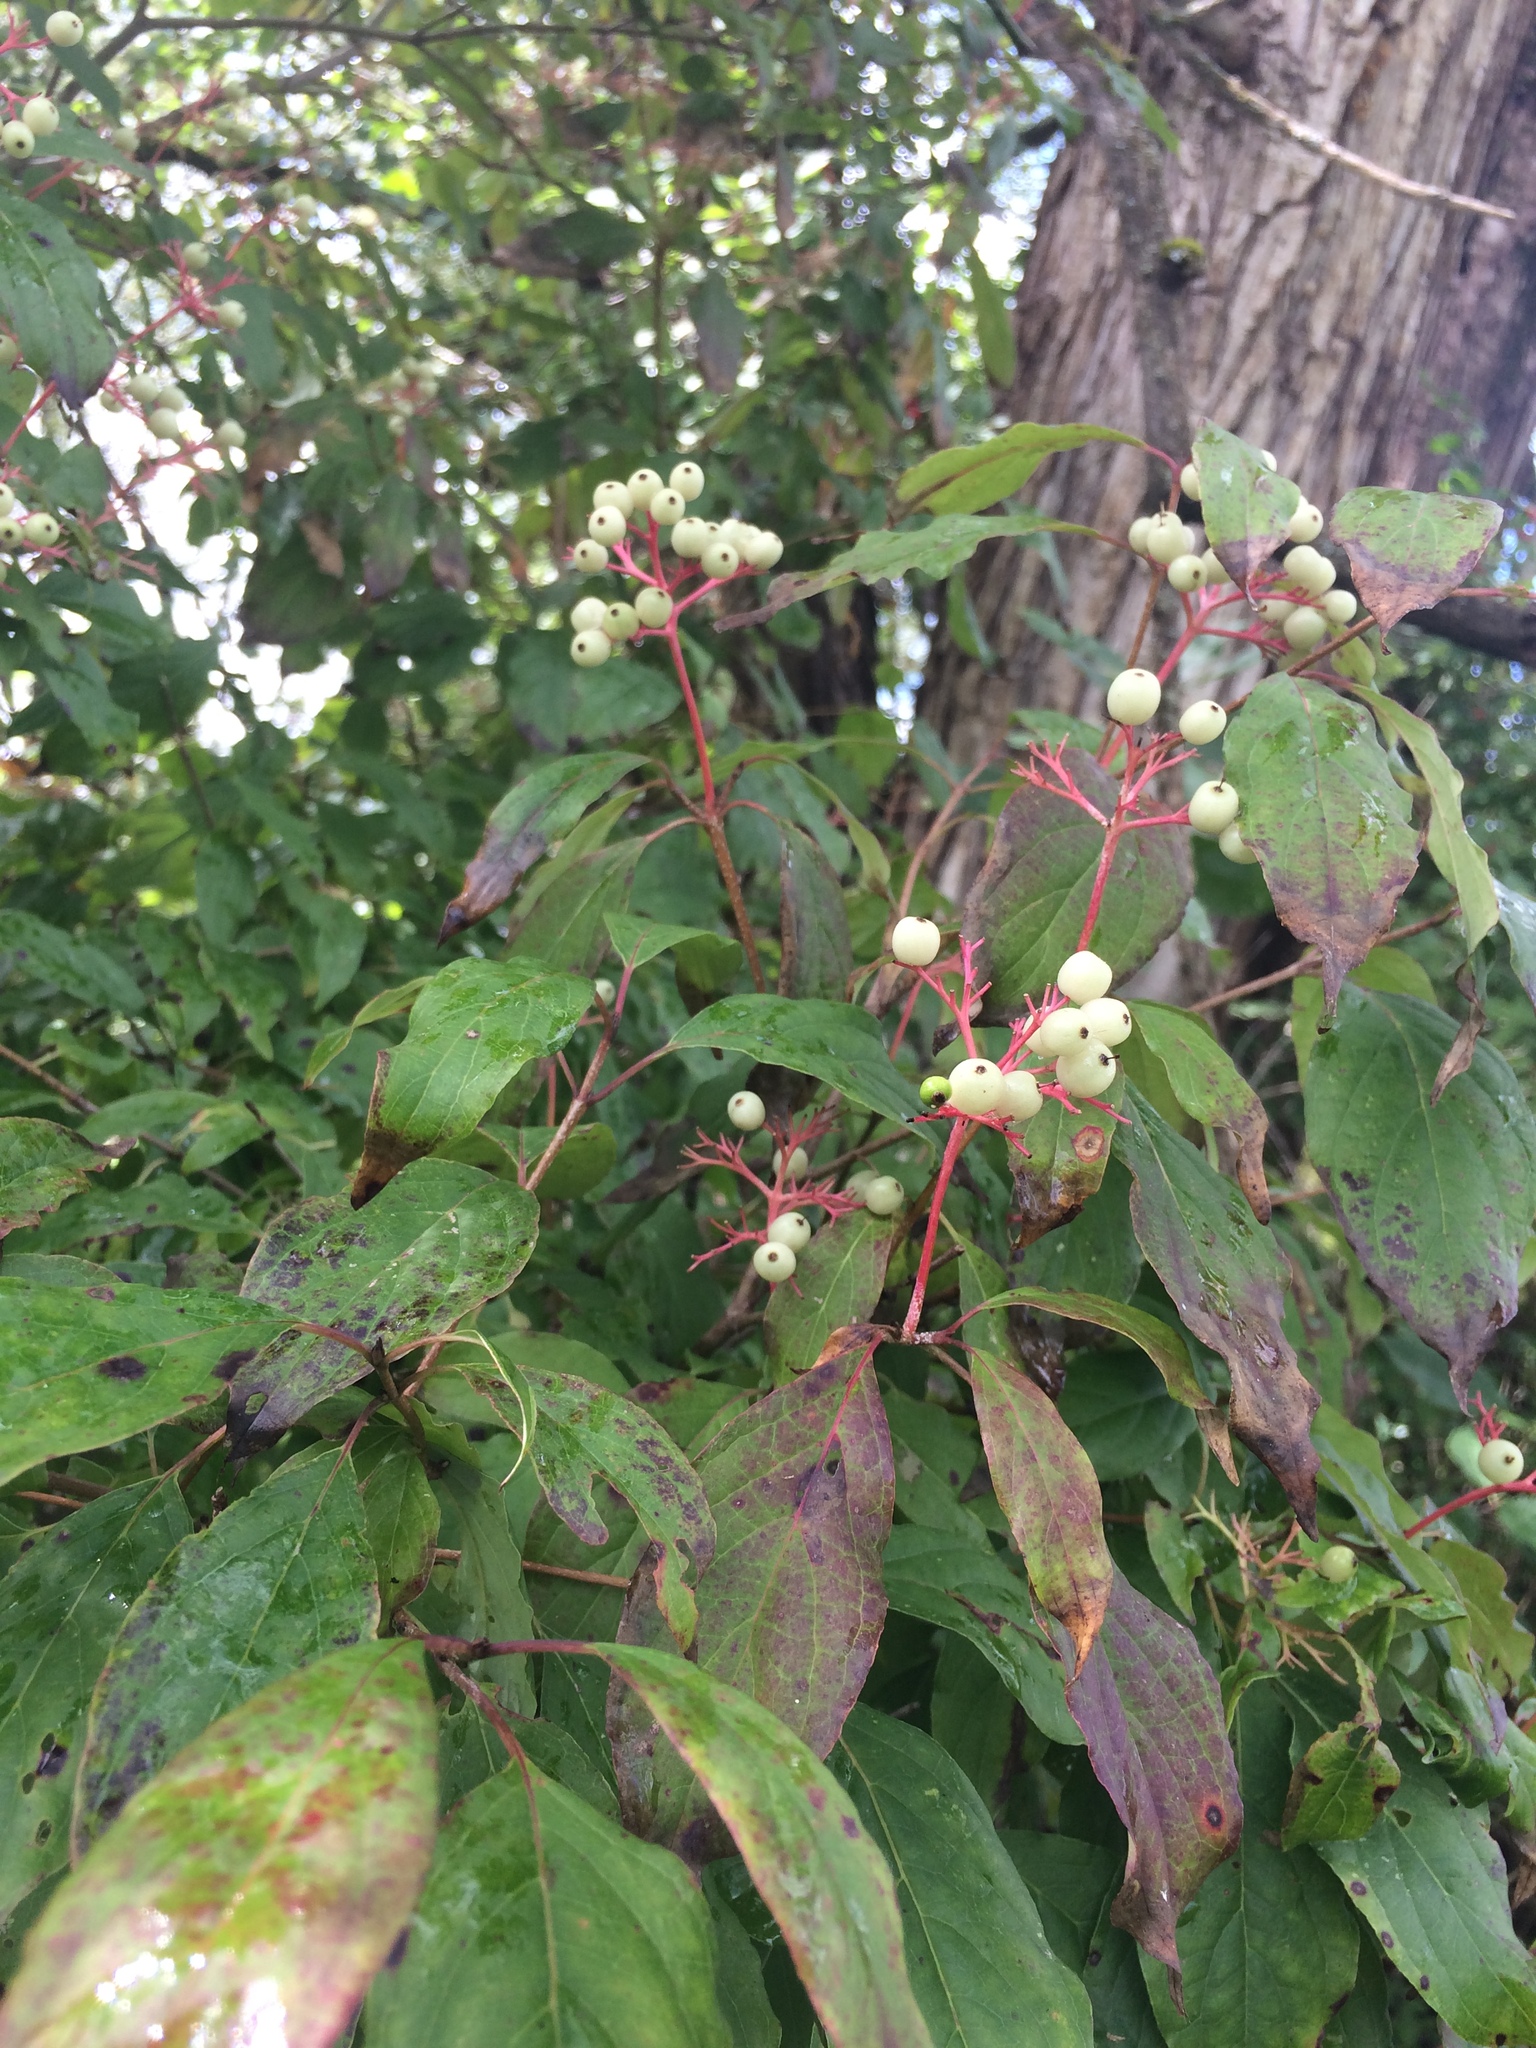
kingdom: Plantae
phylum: Tracheophyta
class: Magnoliopsida
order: Cornales
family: Cornaceae
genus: Cornus
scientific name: Cornus racemosa
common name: Panicled dogwood
